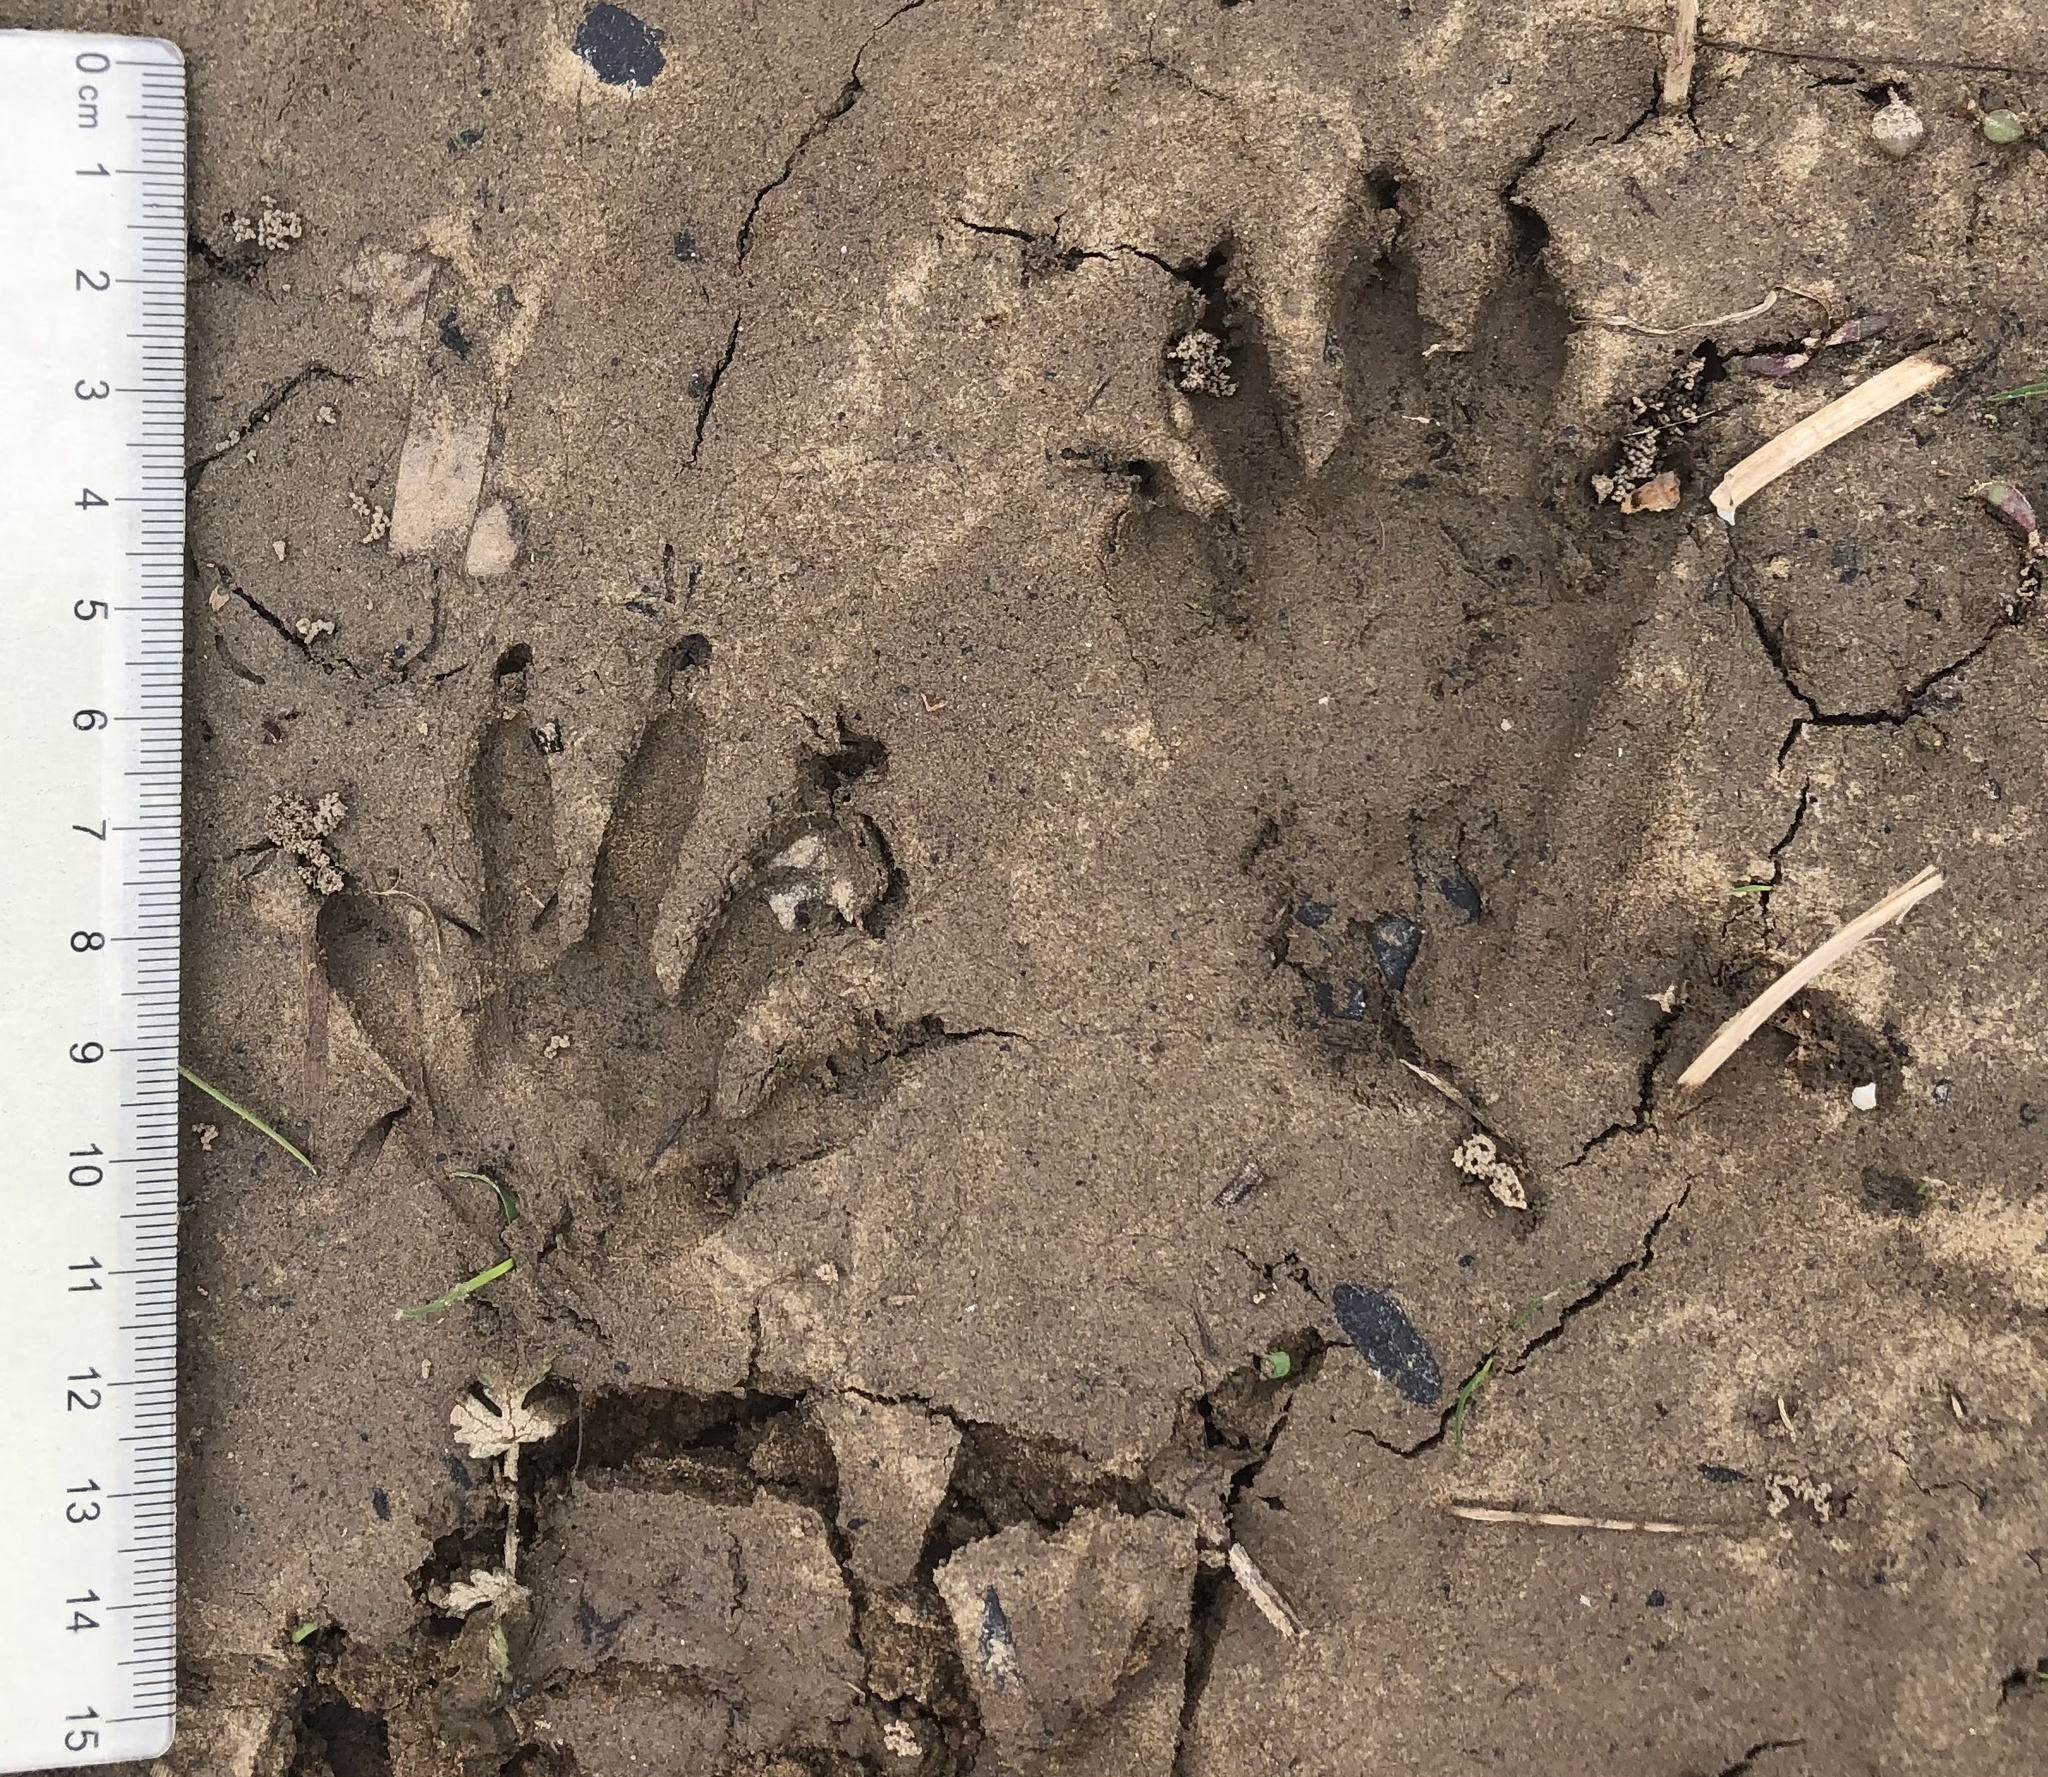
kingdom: Animalia
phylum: Chordata
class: Mammalia
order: Carnivora
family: Procyonidae
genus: Procyon
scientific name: Procyon lotor
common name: Raccoon
